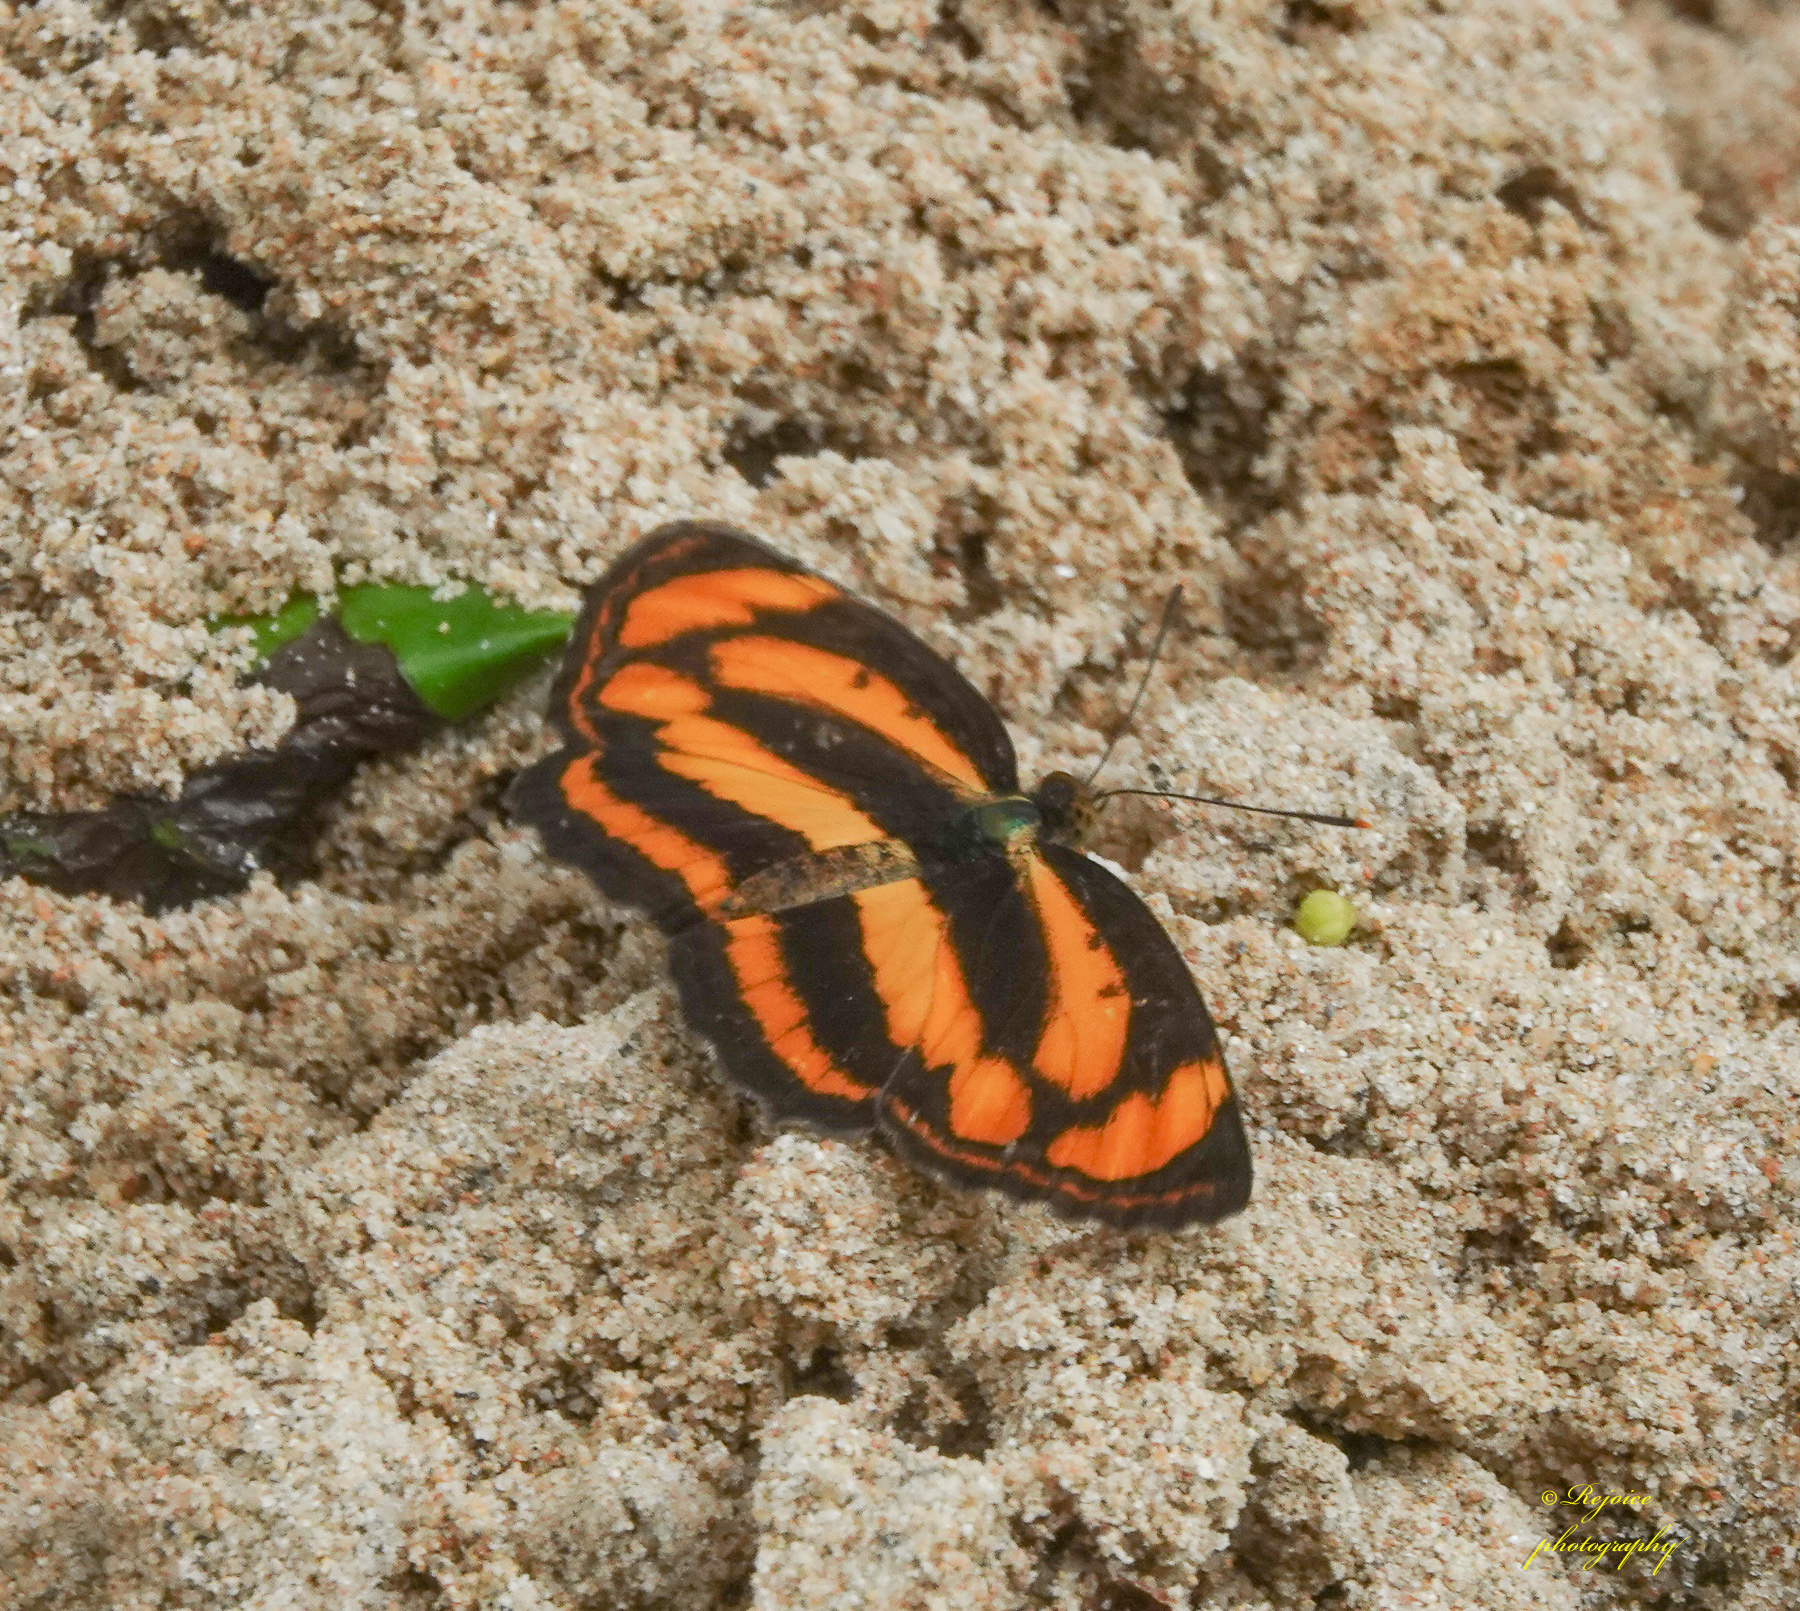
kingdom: Animalia
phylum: Arthropoda
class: Insecta
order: Lepidoptera
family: Nymphalidae
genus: Pantoporia
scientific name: Pantoporia hordonia
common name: Common lascar
